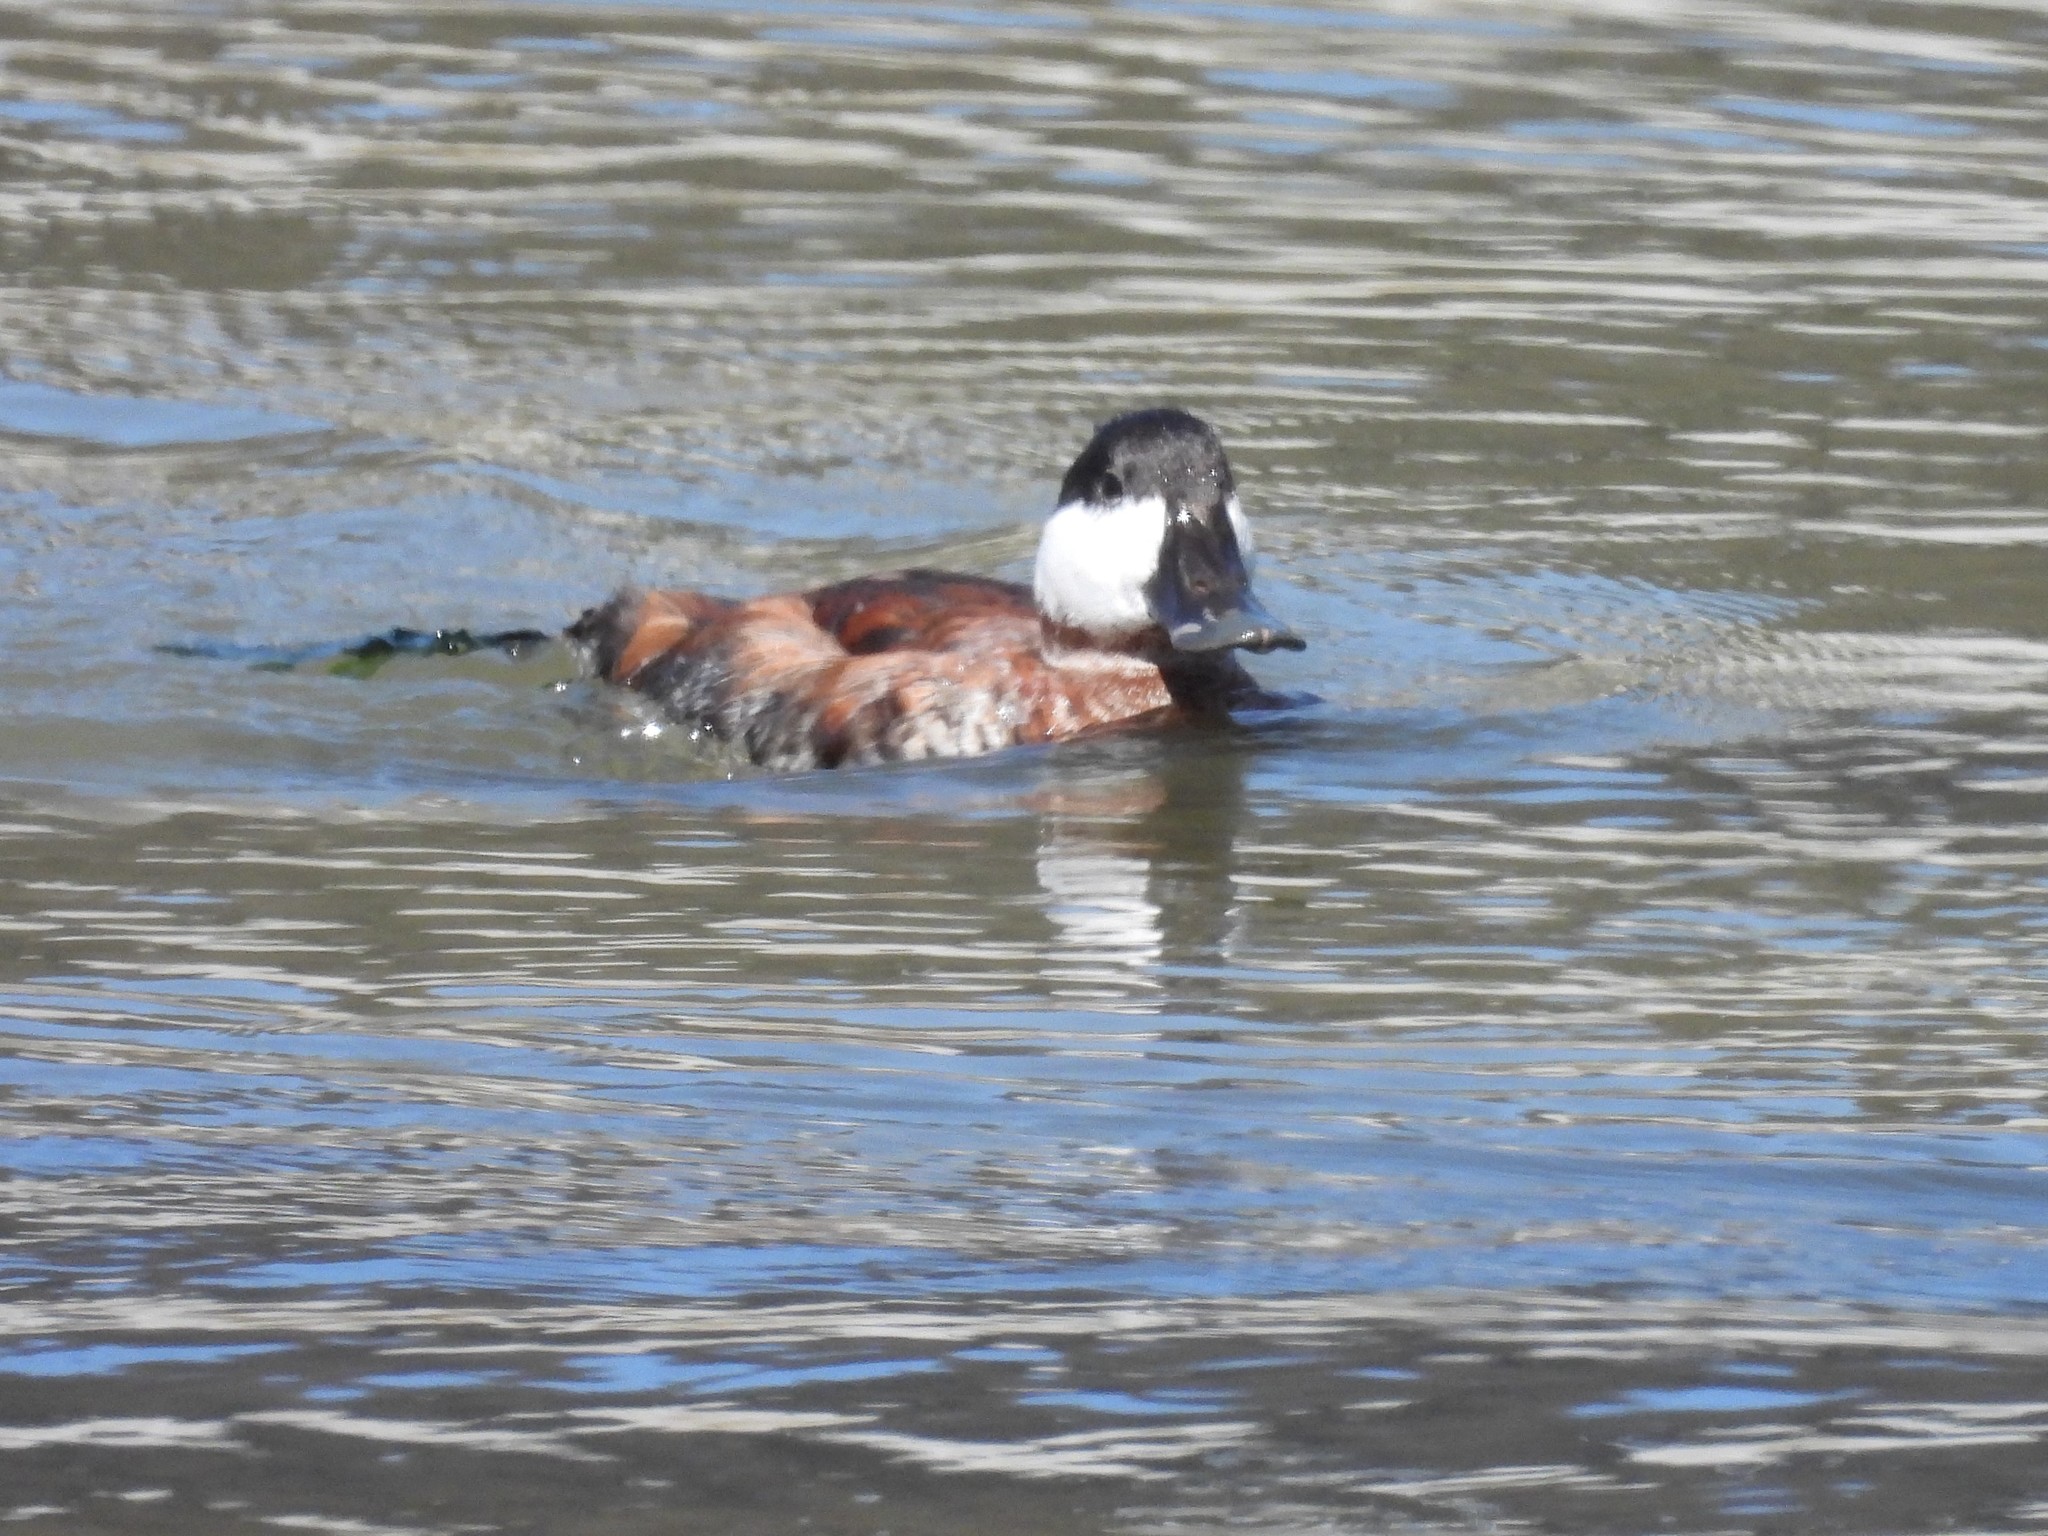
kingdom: Animalia
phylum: Chordata
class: Aves
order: Anseriformes
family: Anatidae
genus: Oxyura
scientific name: Oxyura jamaicensis
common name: Ruddy duck
